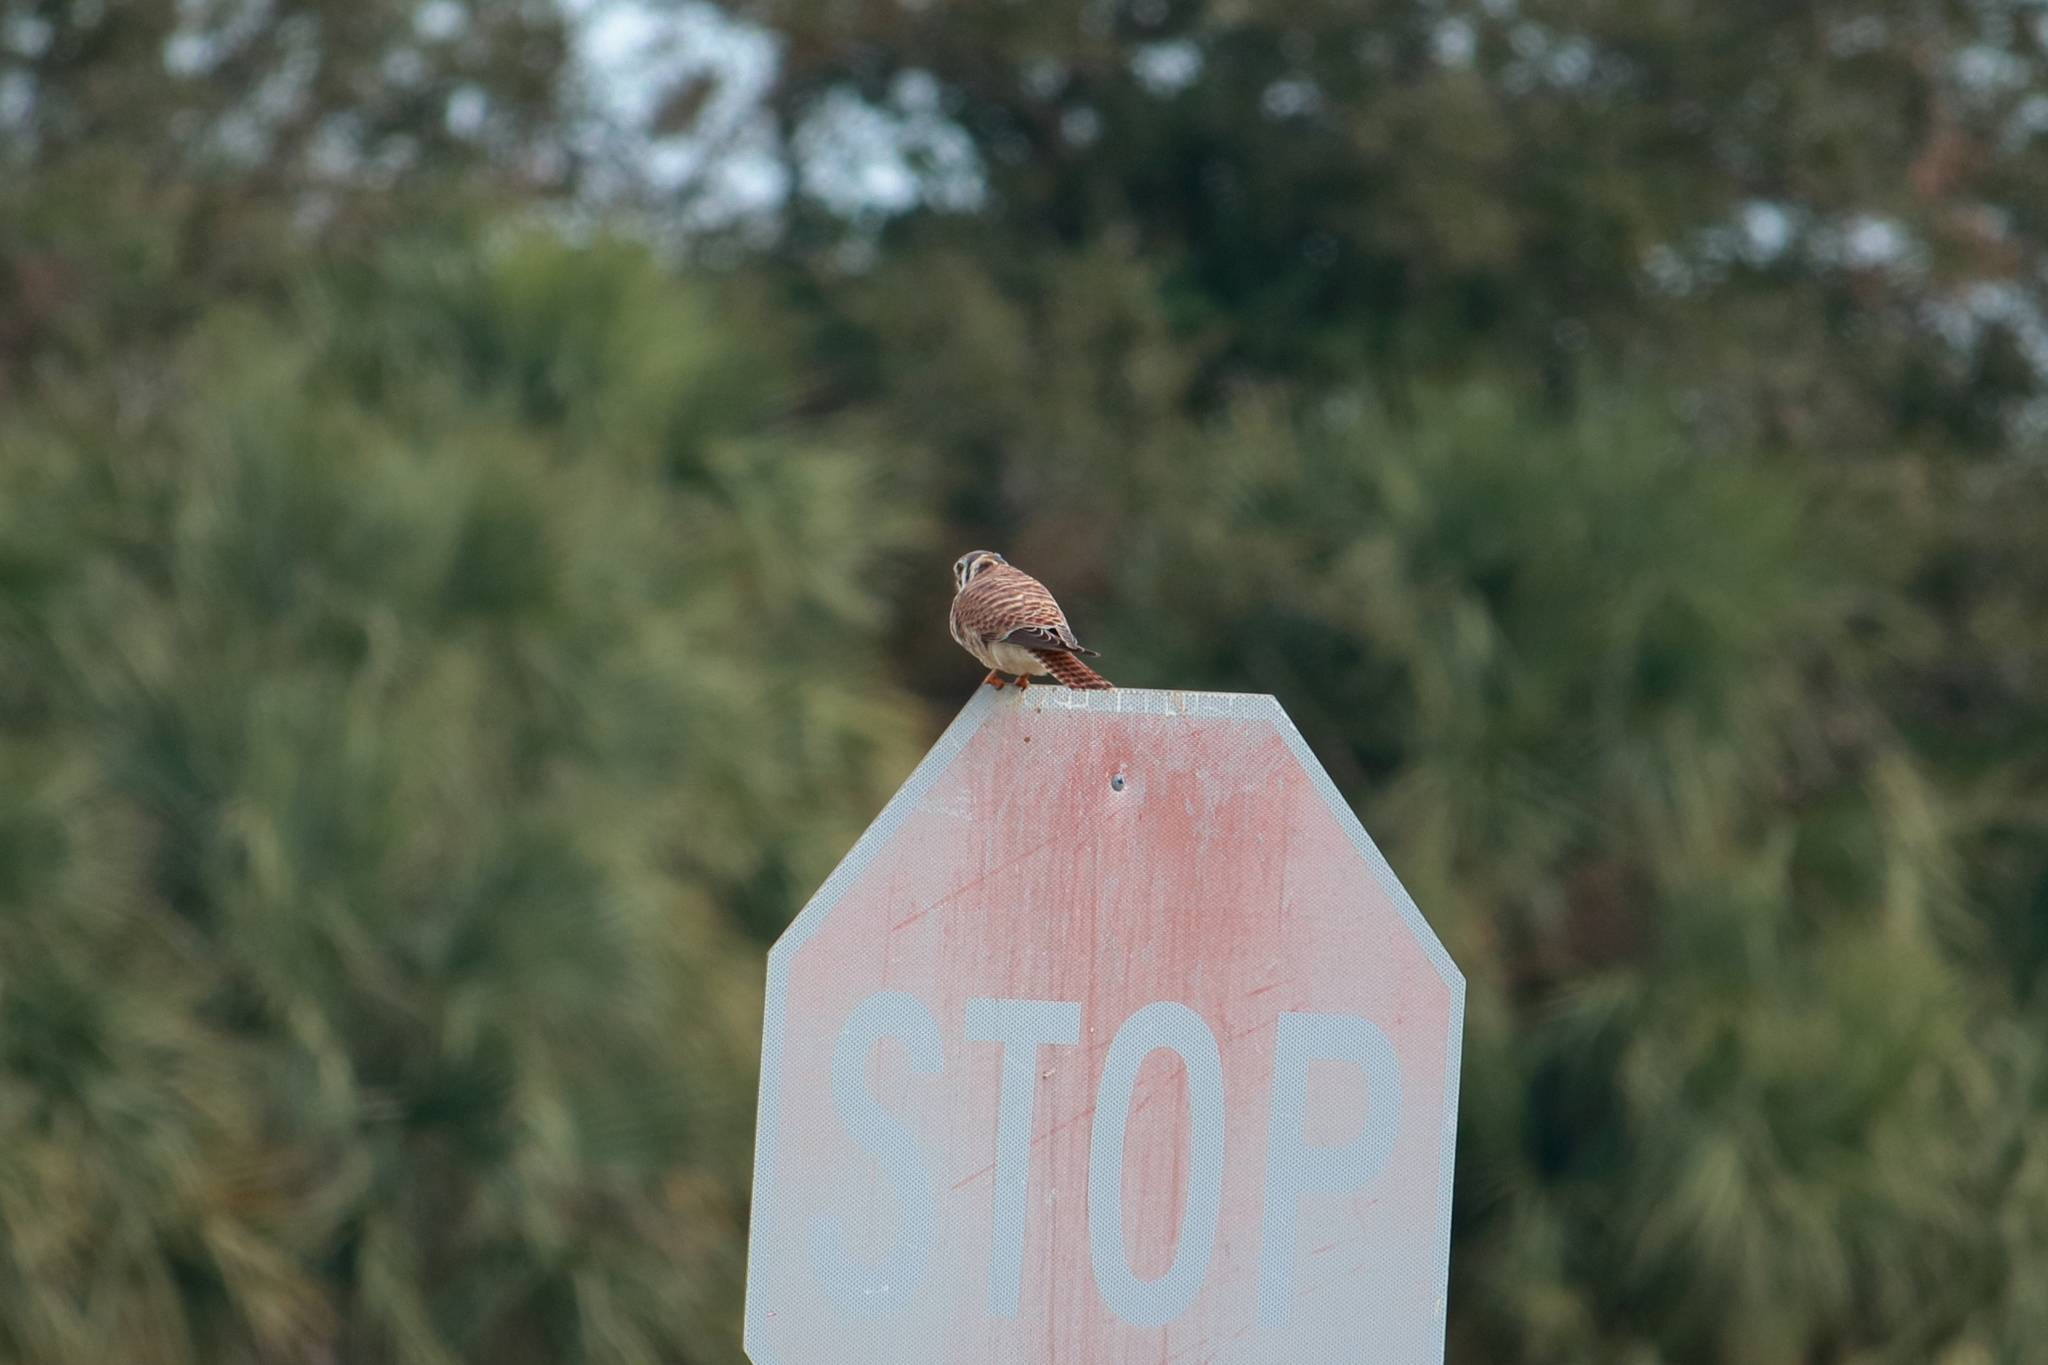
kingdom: Animalia
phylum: Chordata
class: Aves
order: Falconiformes
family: Falconidae
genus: Falco
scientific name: Falco sparverius
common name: American kestrel
